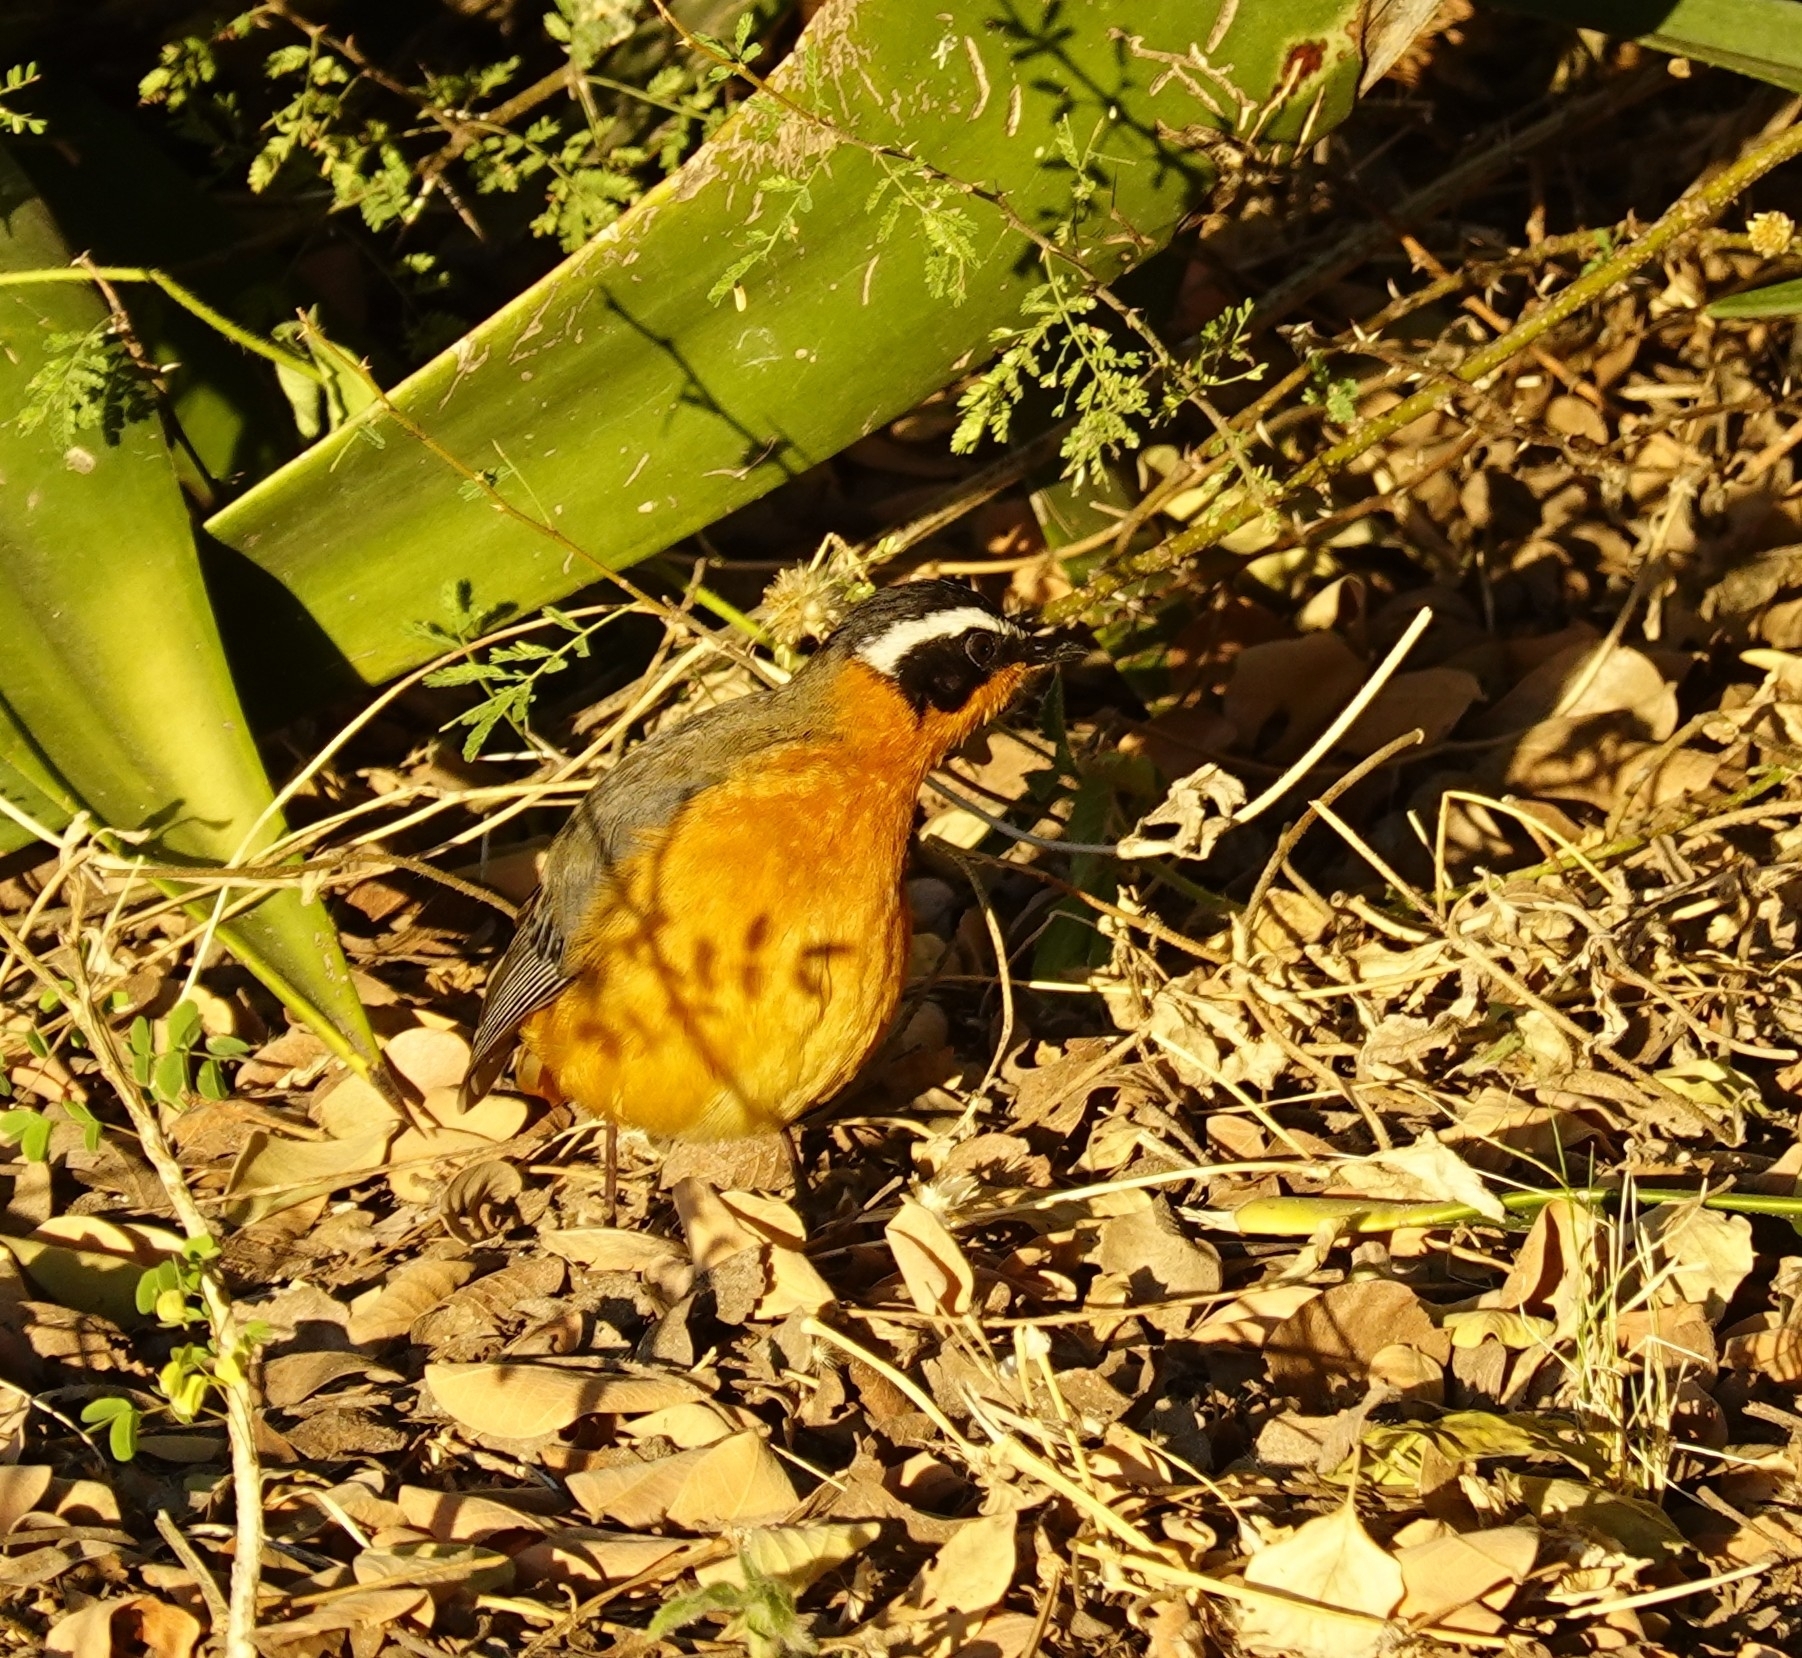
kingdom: Animalia
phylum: Chordata
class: Aves
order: Passeriformes
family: Muscicapidae
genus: Cossypha
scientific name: Cossypha heuglini
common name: White-browed robin-chat
